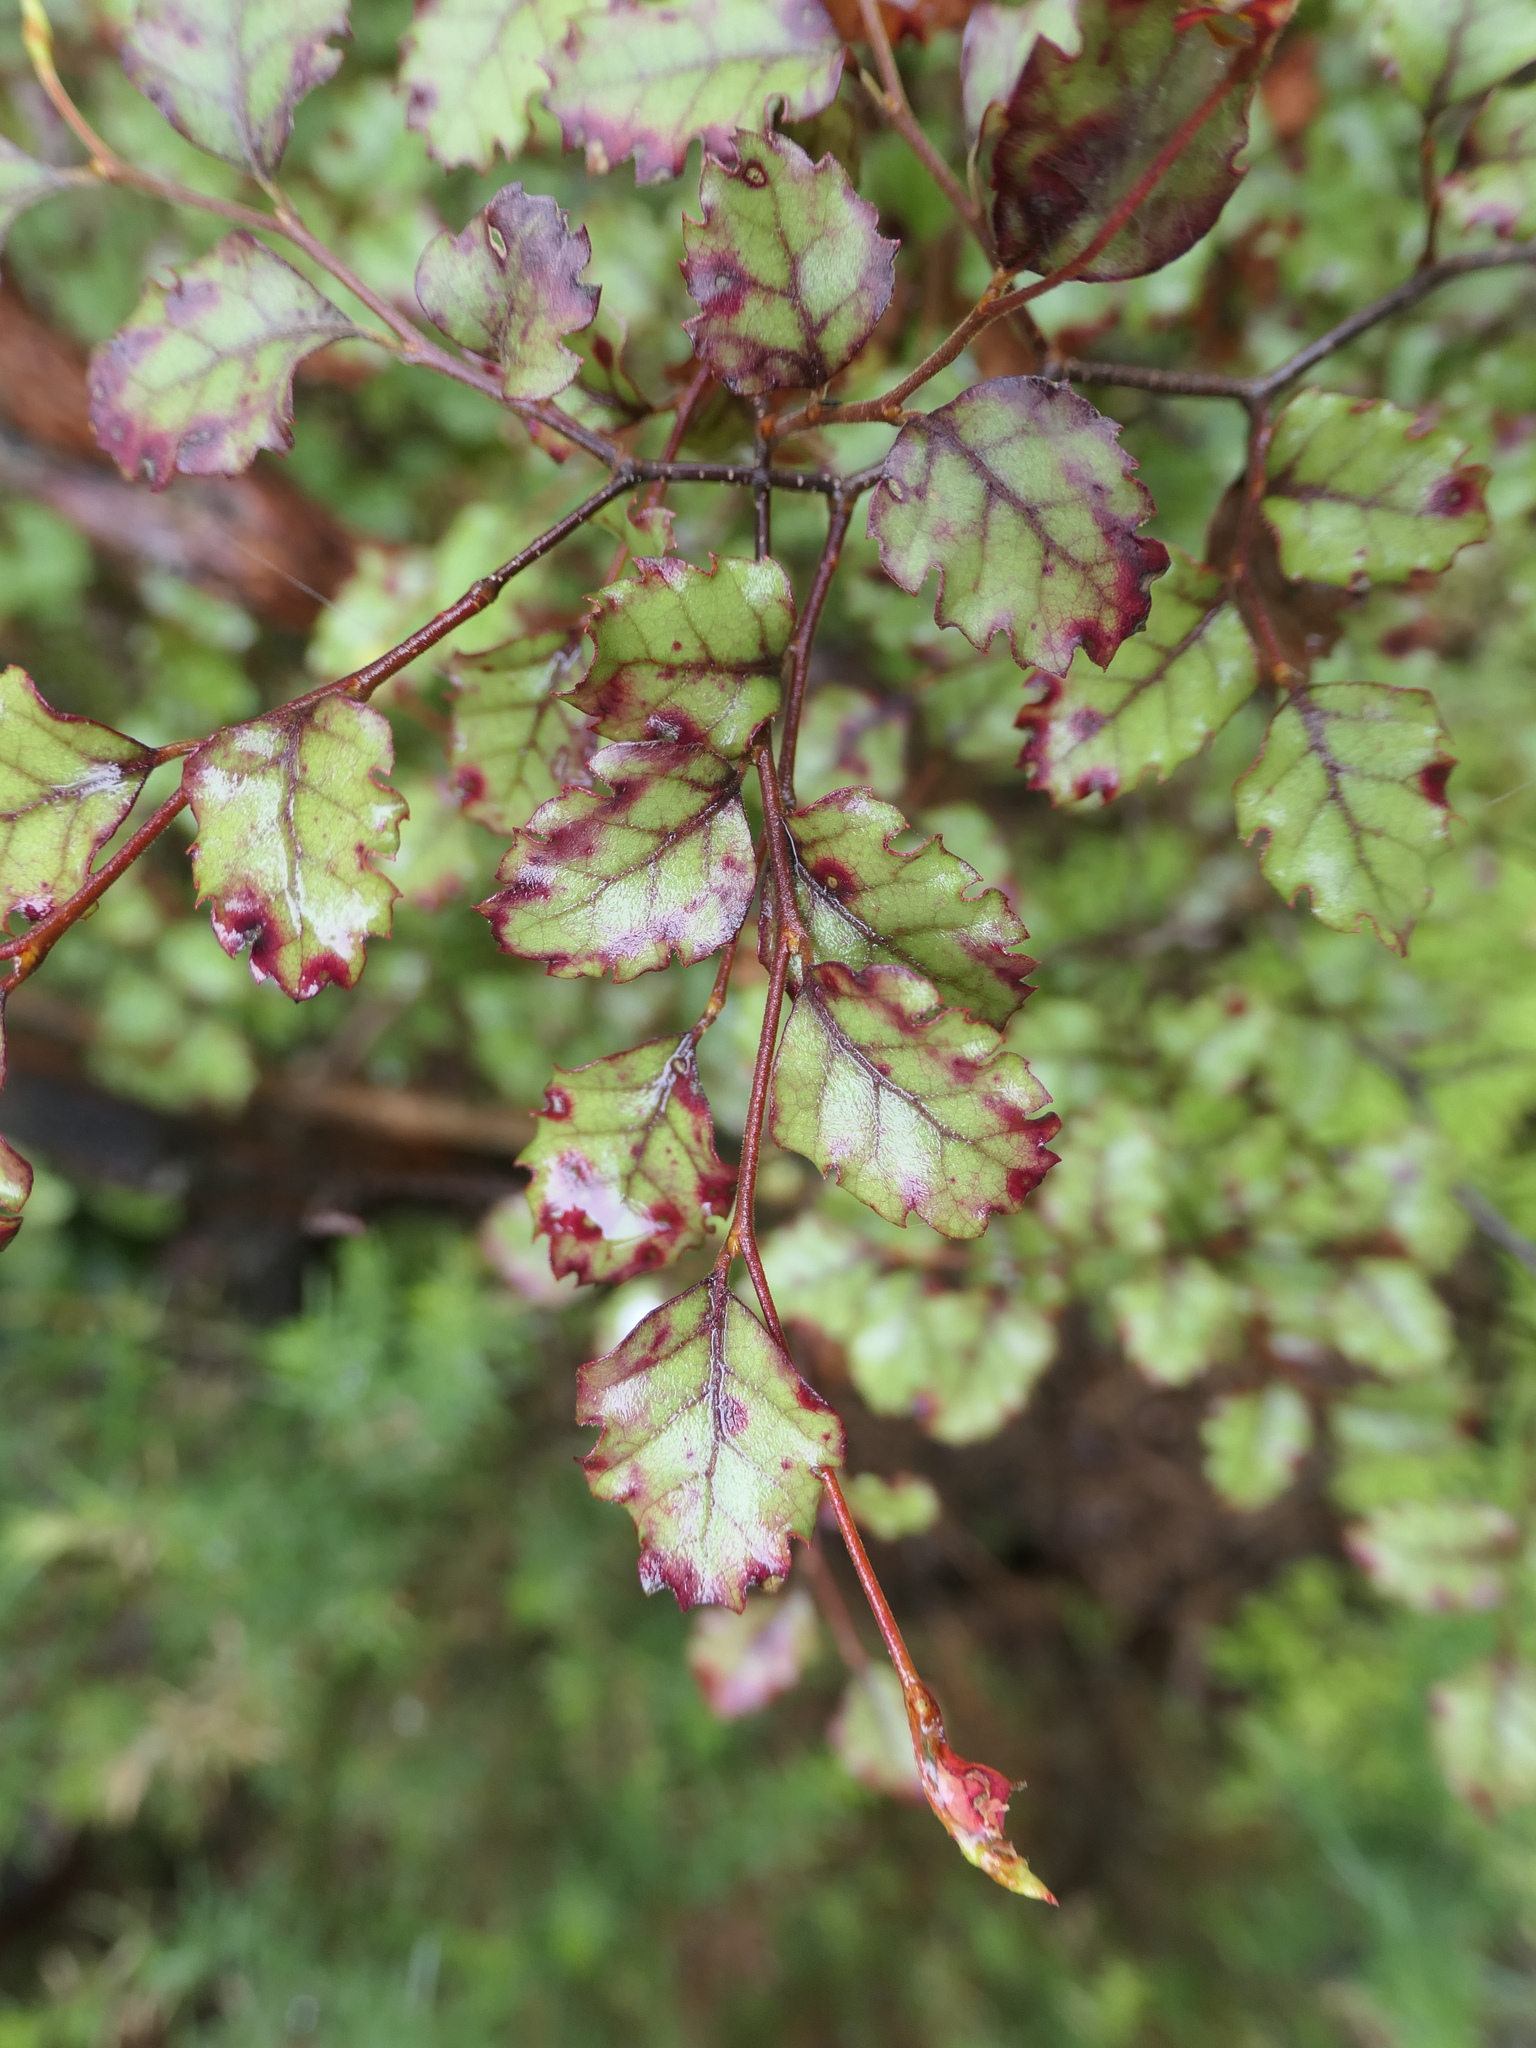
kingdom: Plantae
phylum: Tracheophyta
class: Magnoliopsida
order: Fagales
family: Nothofagaceae
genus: Nothofagus
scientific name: Nothofagus fusca
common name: Red beech
